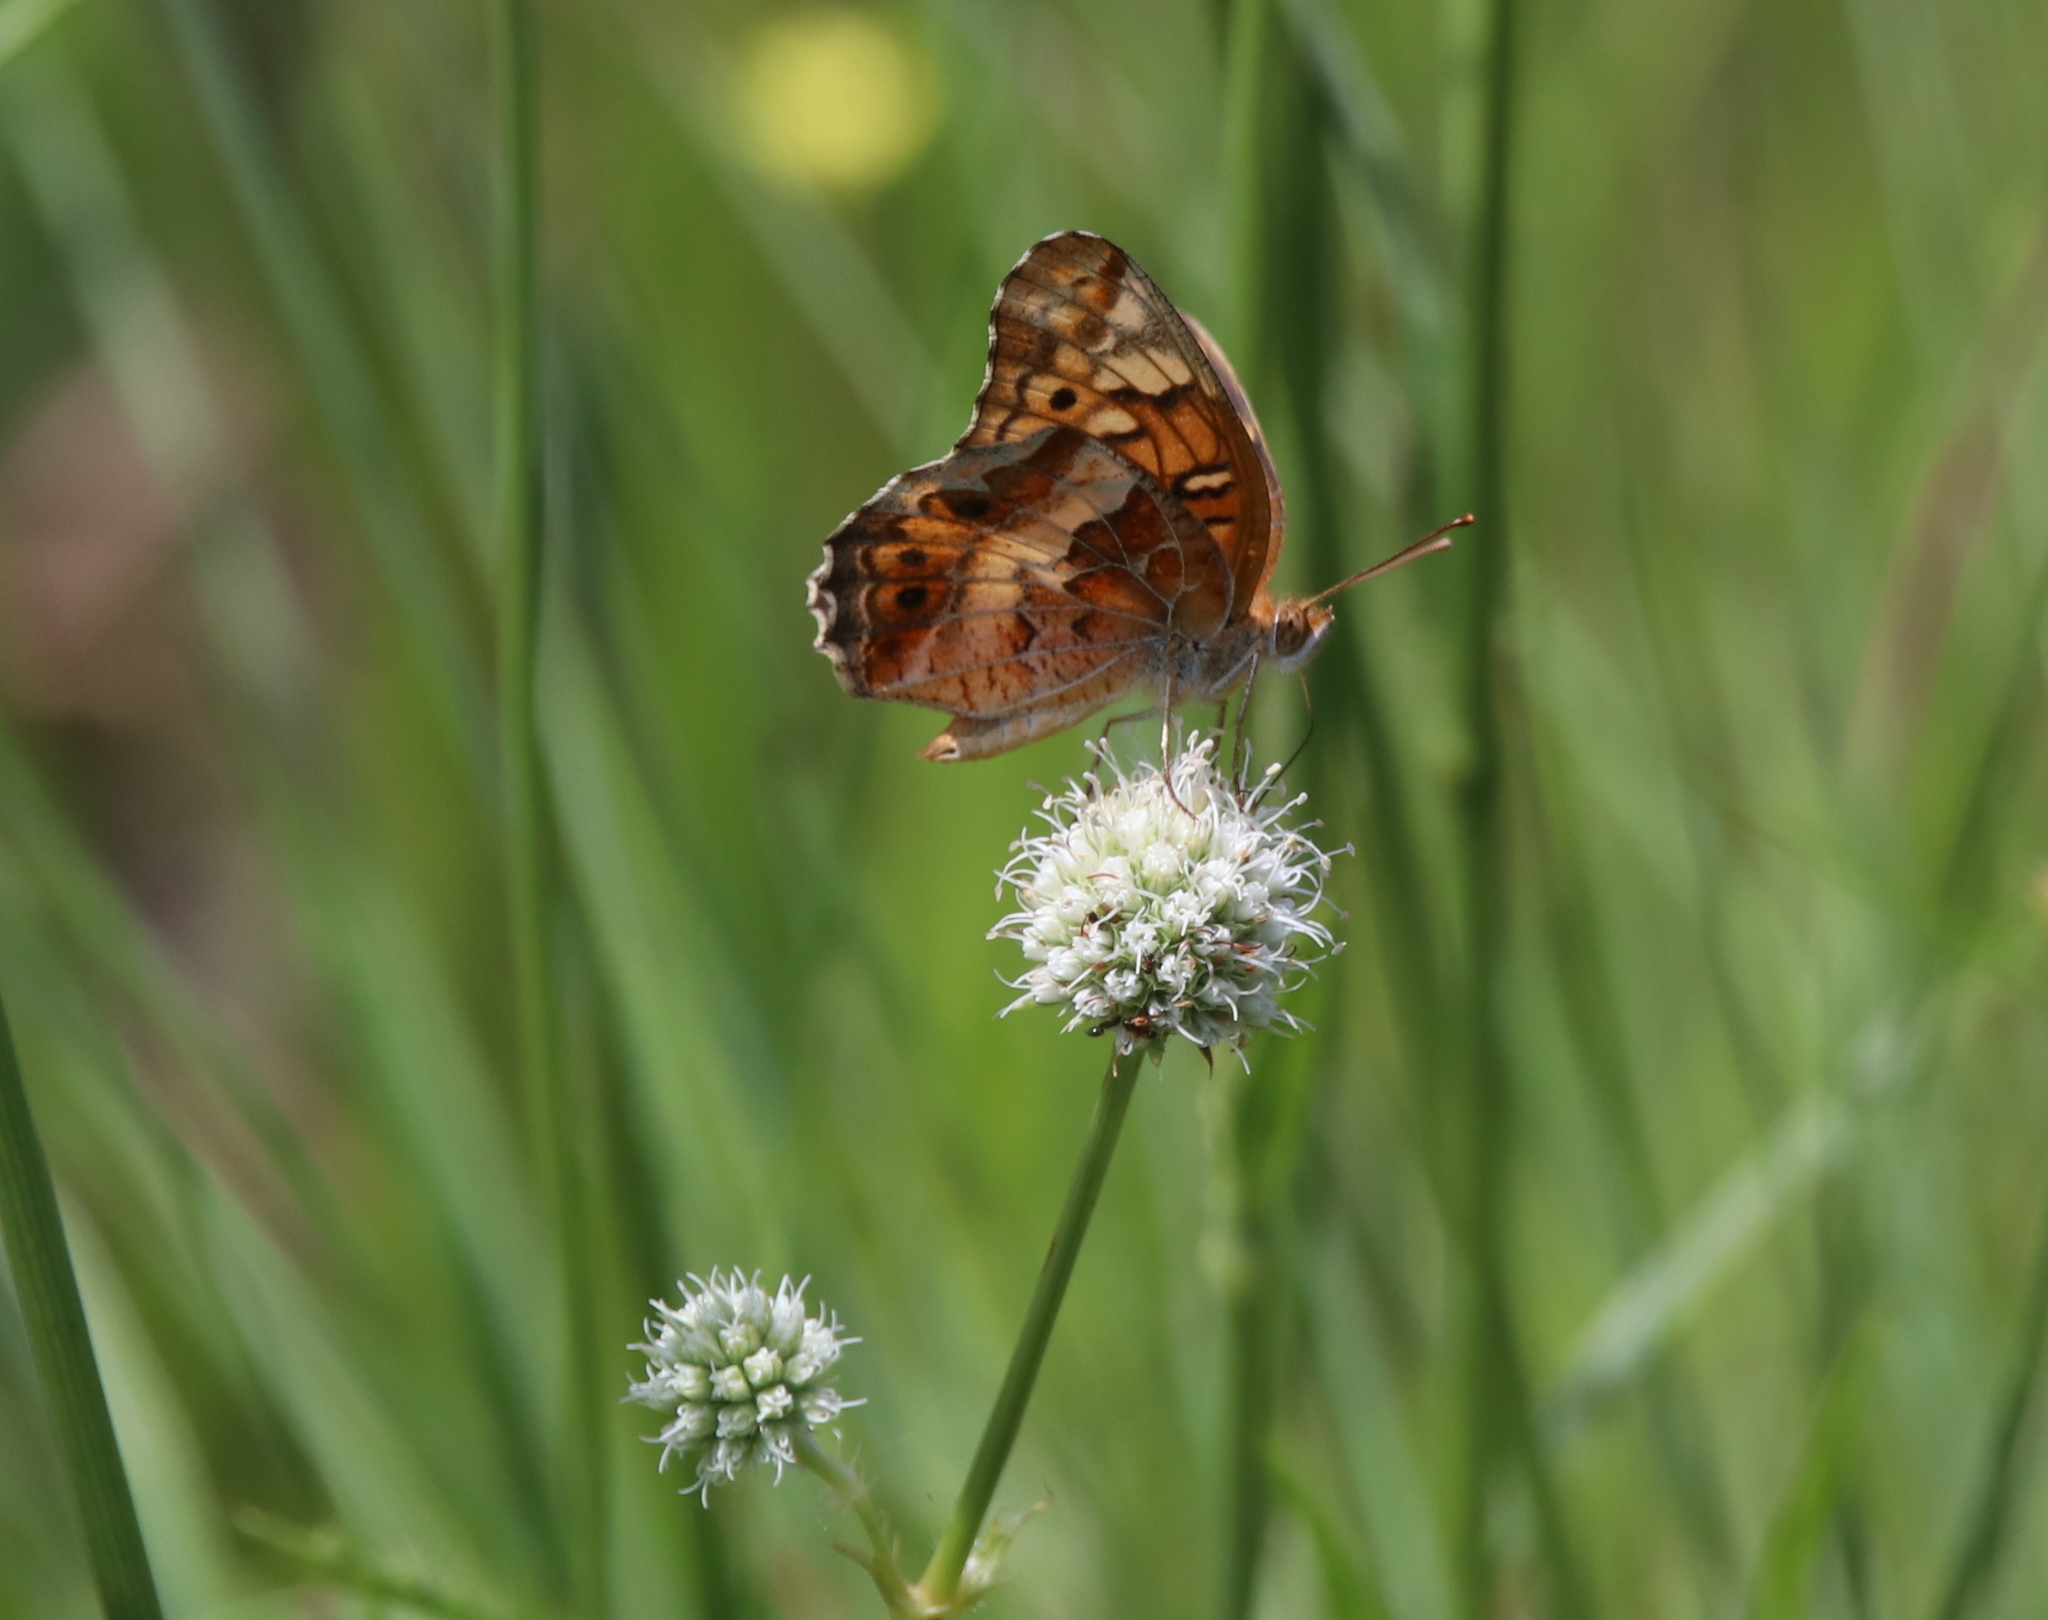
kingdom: Animalia
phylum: Arthropoda
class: Insecta
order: Lepidoptera
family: Nymphalidae
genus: Euptoieta
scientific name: Euptoieta claudia
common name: Variegated fritillary
